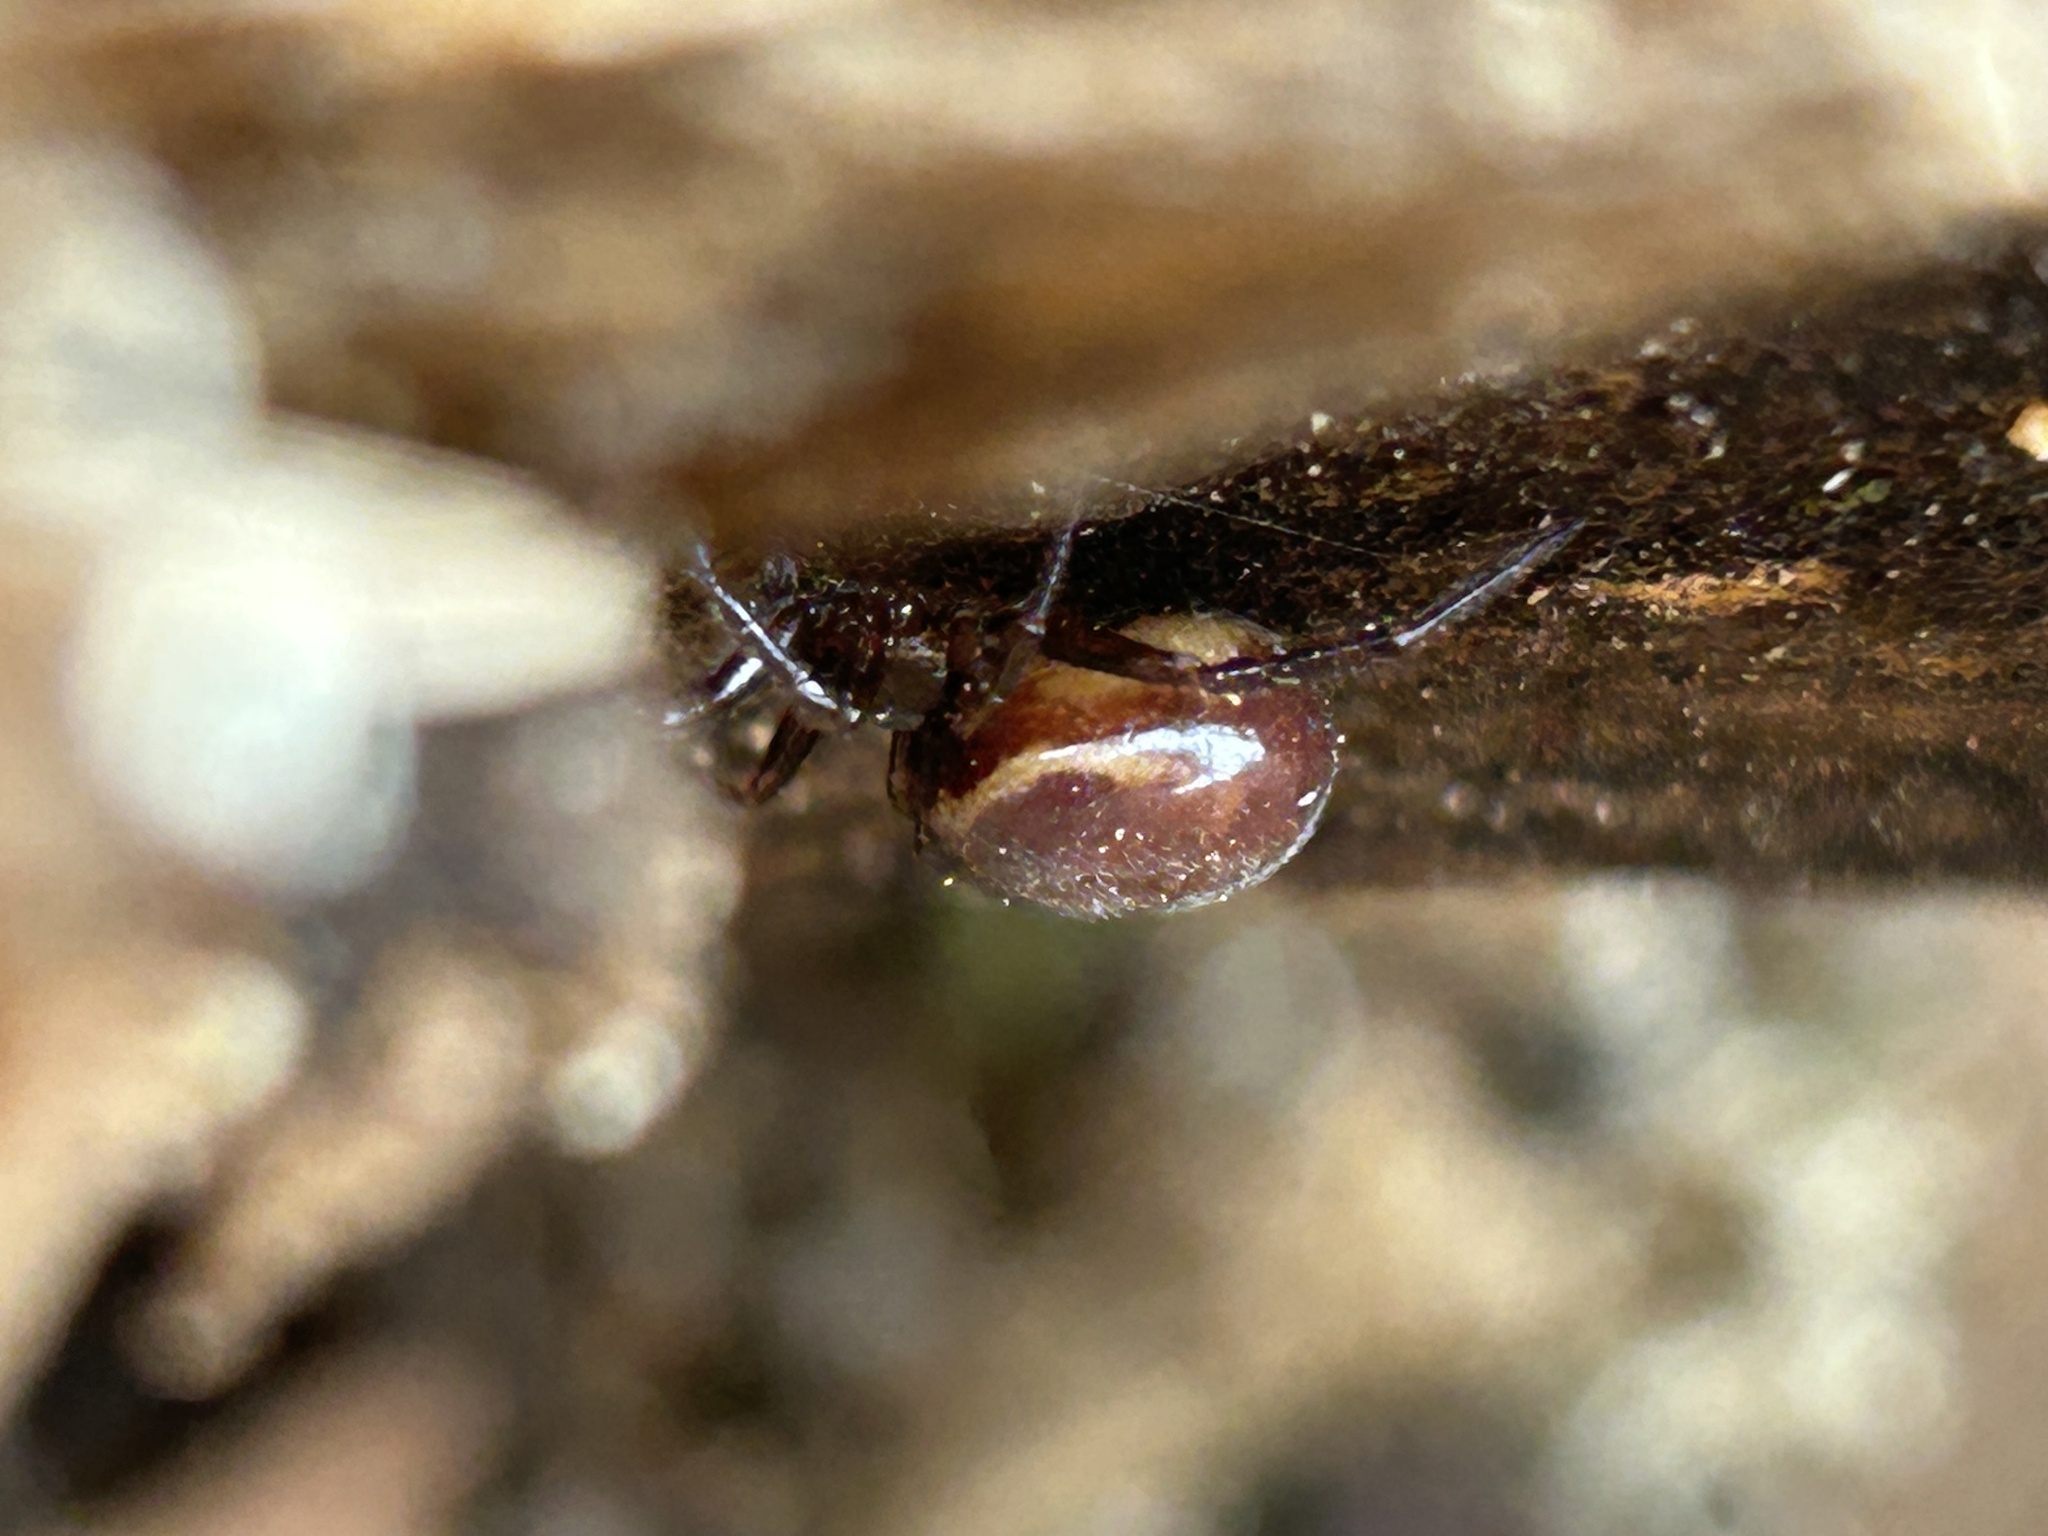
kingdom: Animalia
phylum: Arthropoda
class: Arachnida
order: Araneae
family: Theridiidae
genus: Steatoda
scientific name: Steatoda borealis
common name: Boreal combfoot
